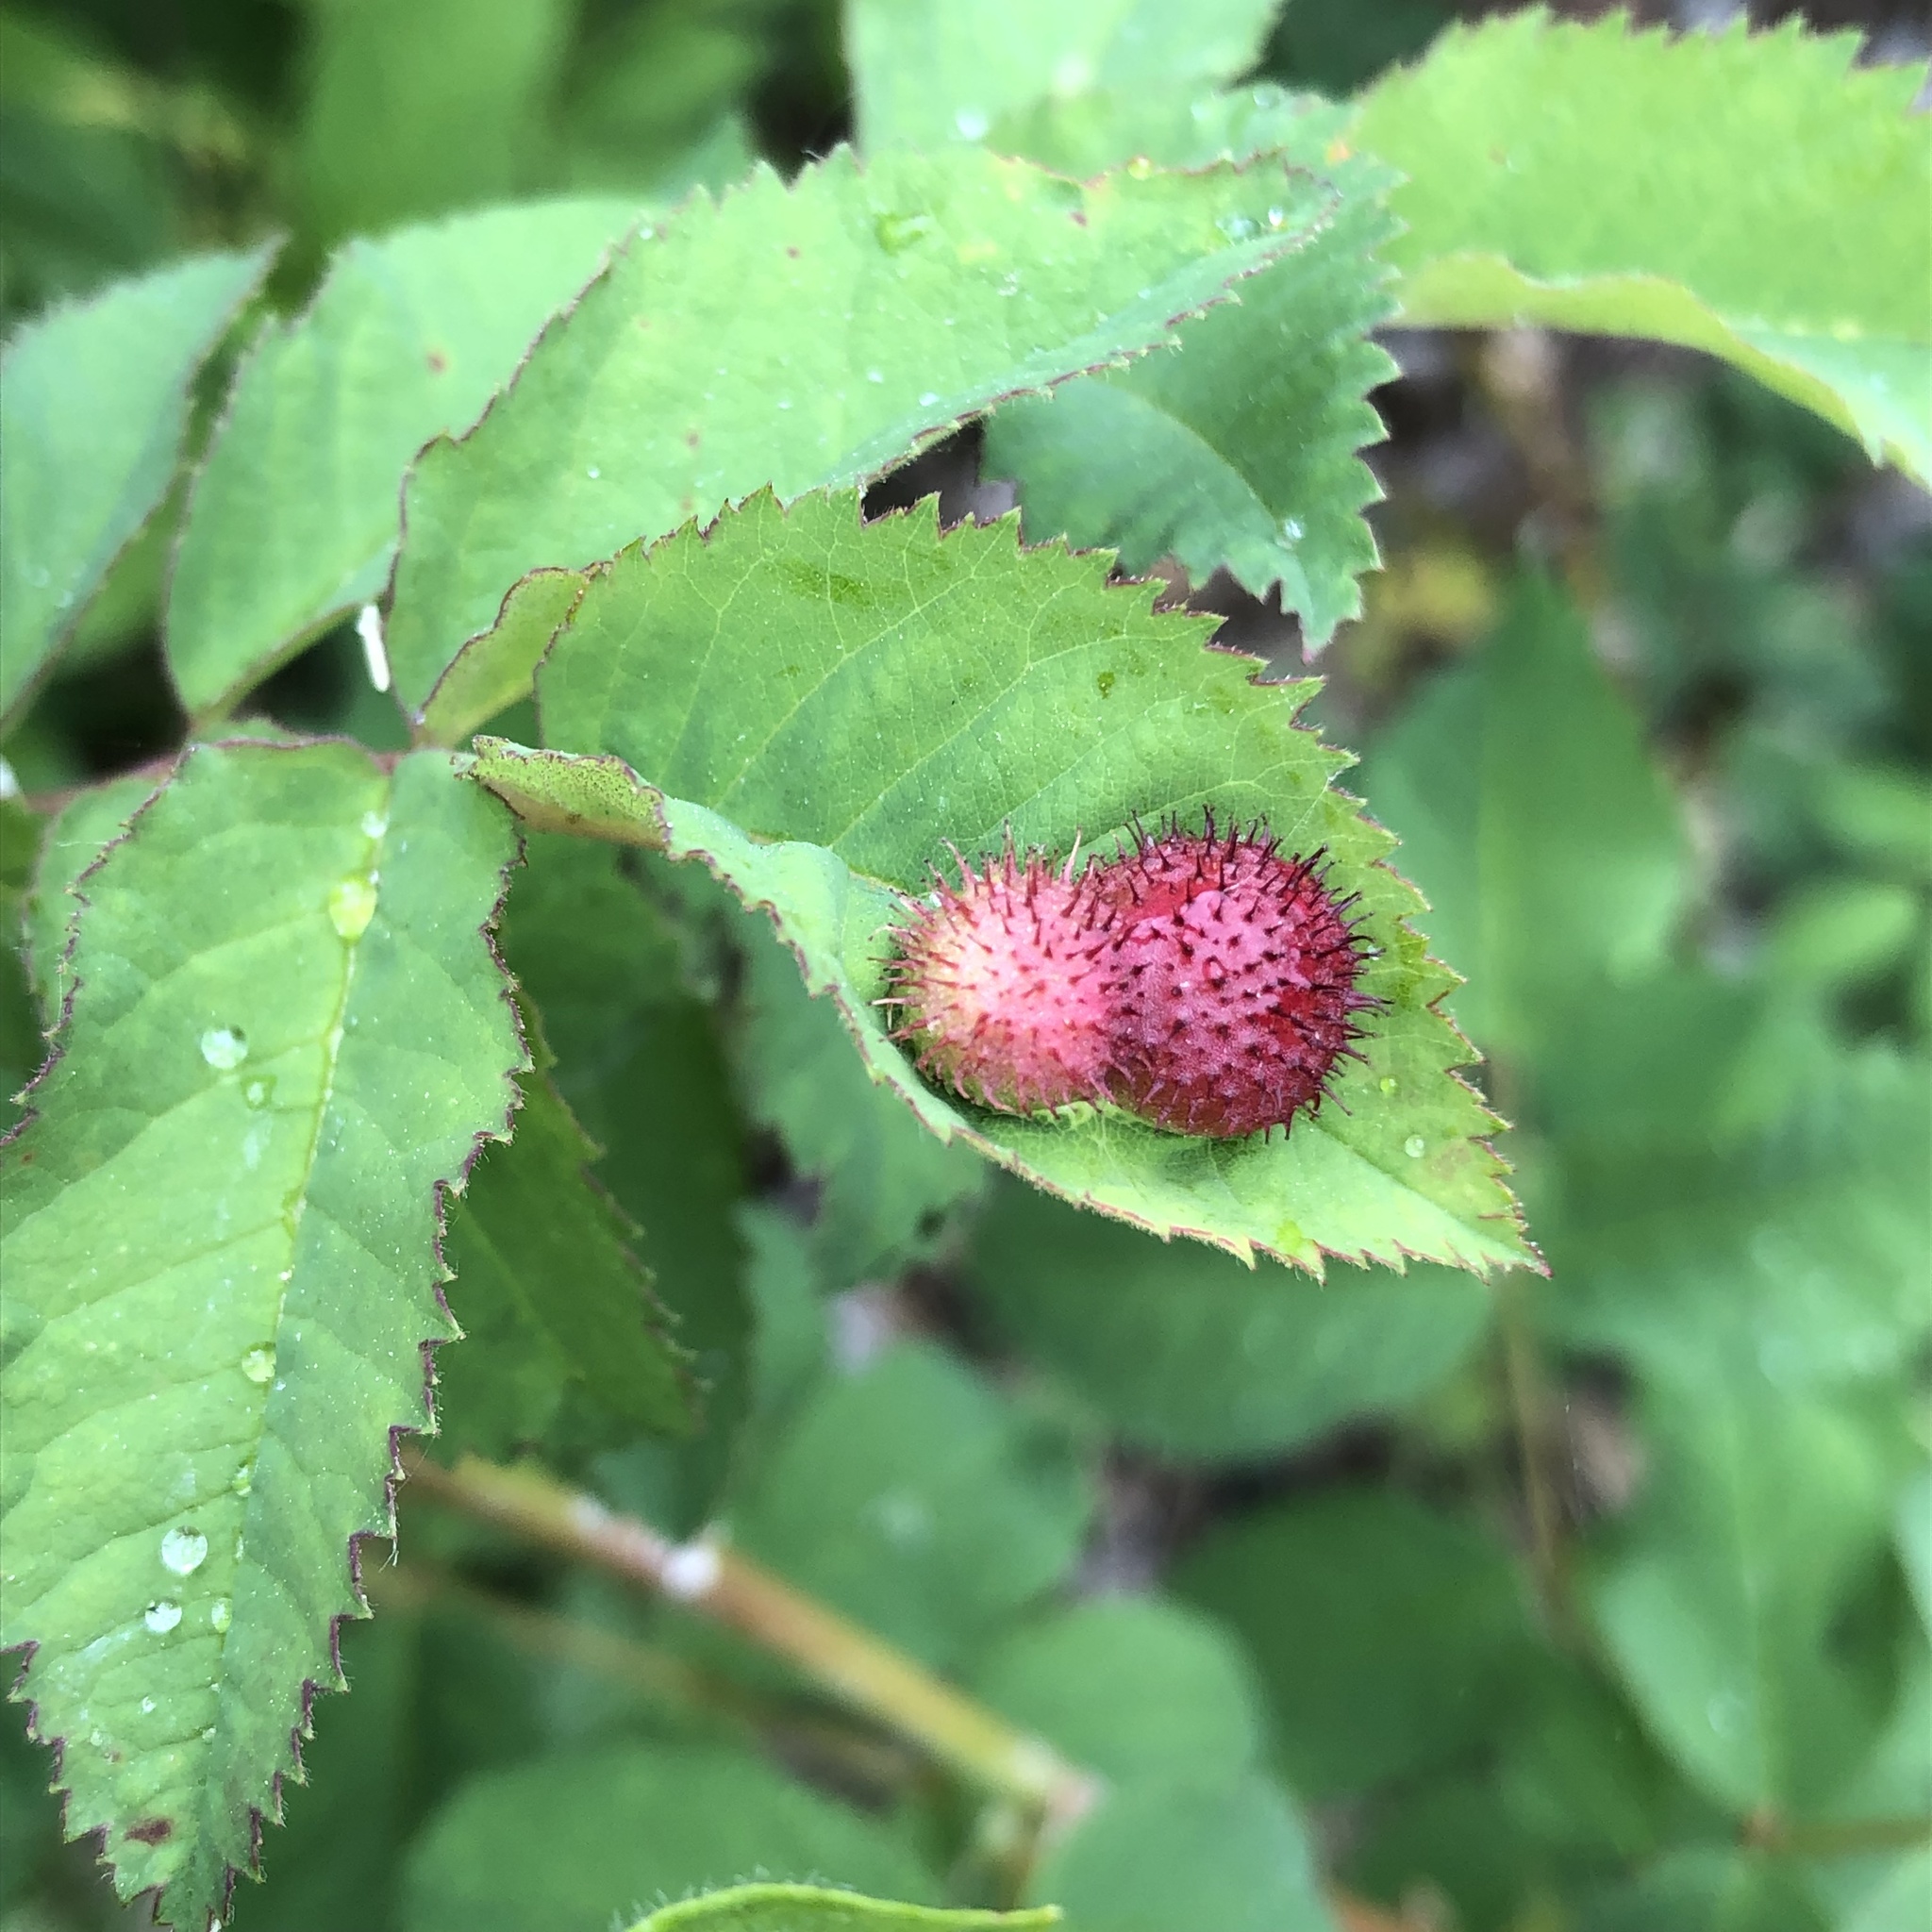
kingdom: Animalia
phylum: Arthropoda
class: Insecta
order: Hymenoptera
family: Cynipidae
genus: Diplolepis
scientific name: Diplolepis polita
